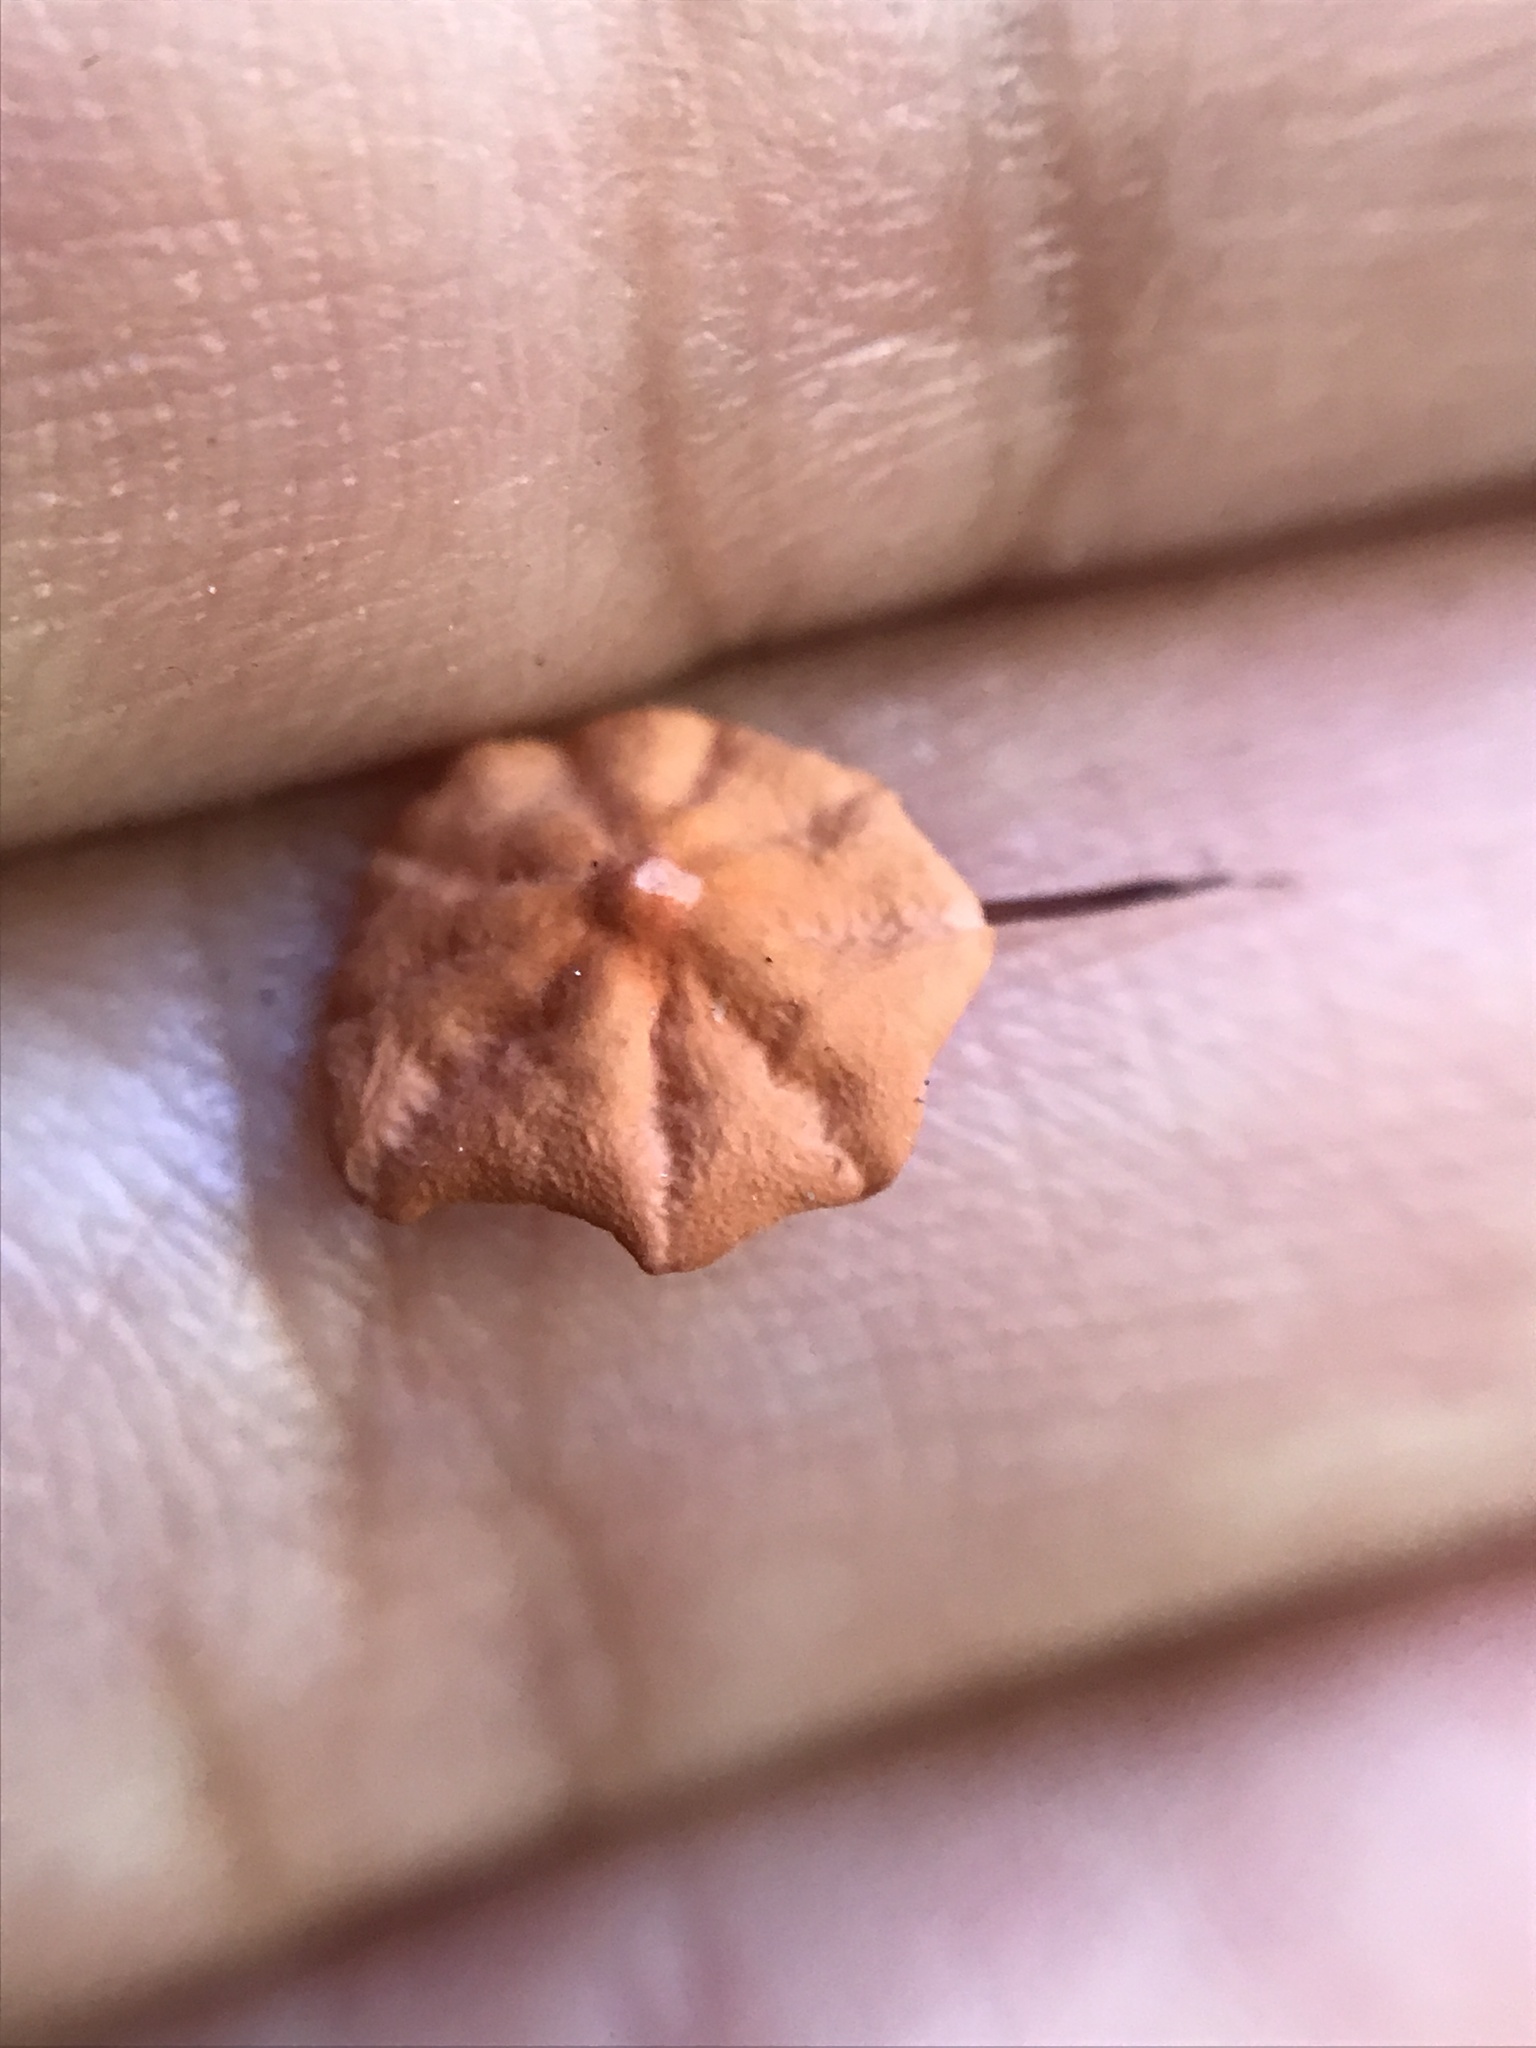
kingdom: Fungi
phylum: Basidiomycota
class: Agaricomycetes
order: Agaricales
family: Marasmiaceae
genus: Marasmius
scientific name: Marasmius siccus
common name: Orange pinwheel
